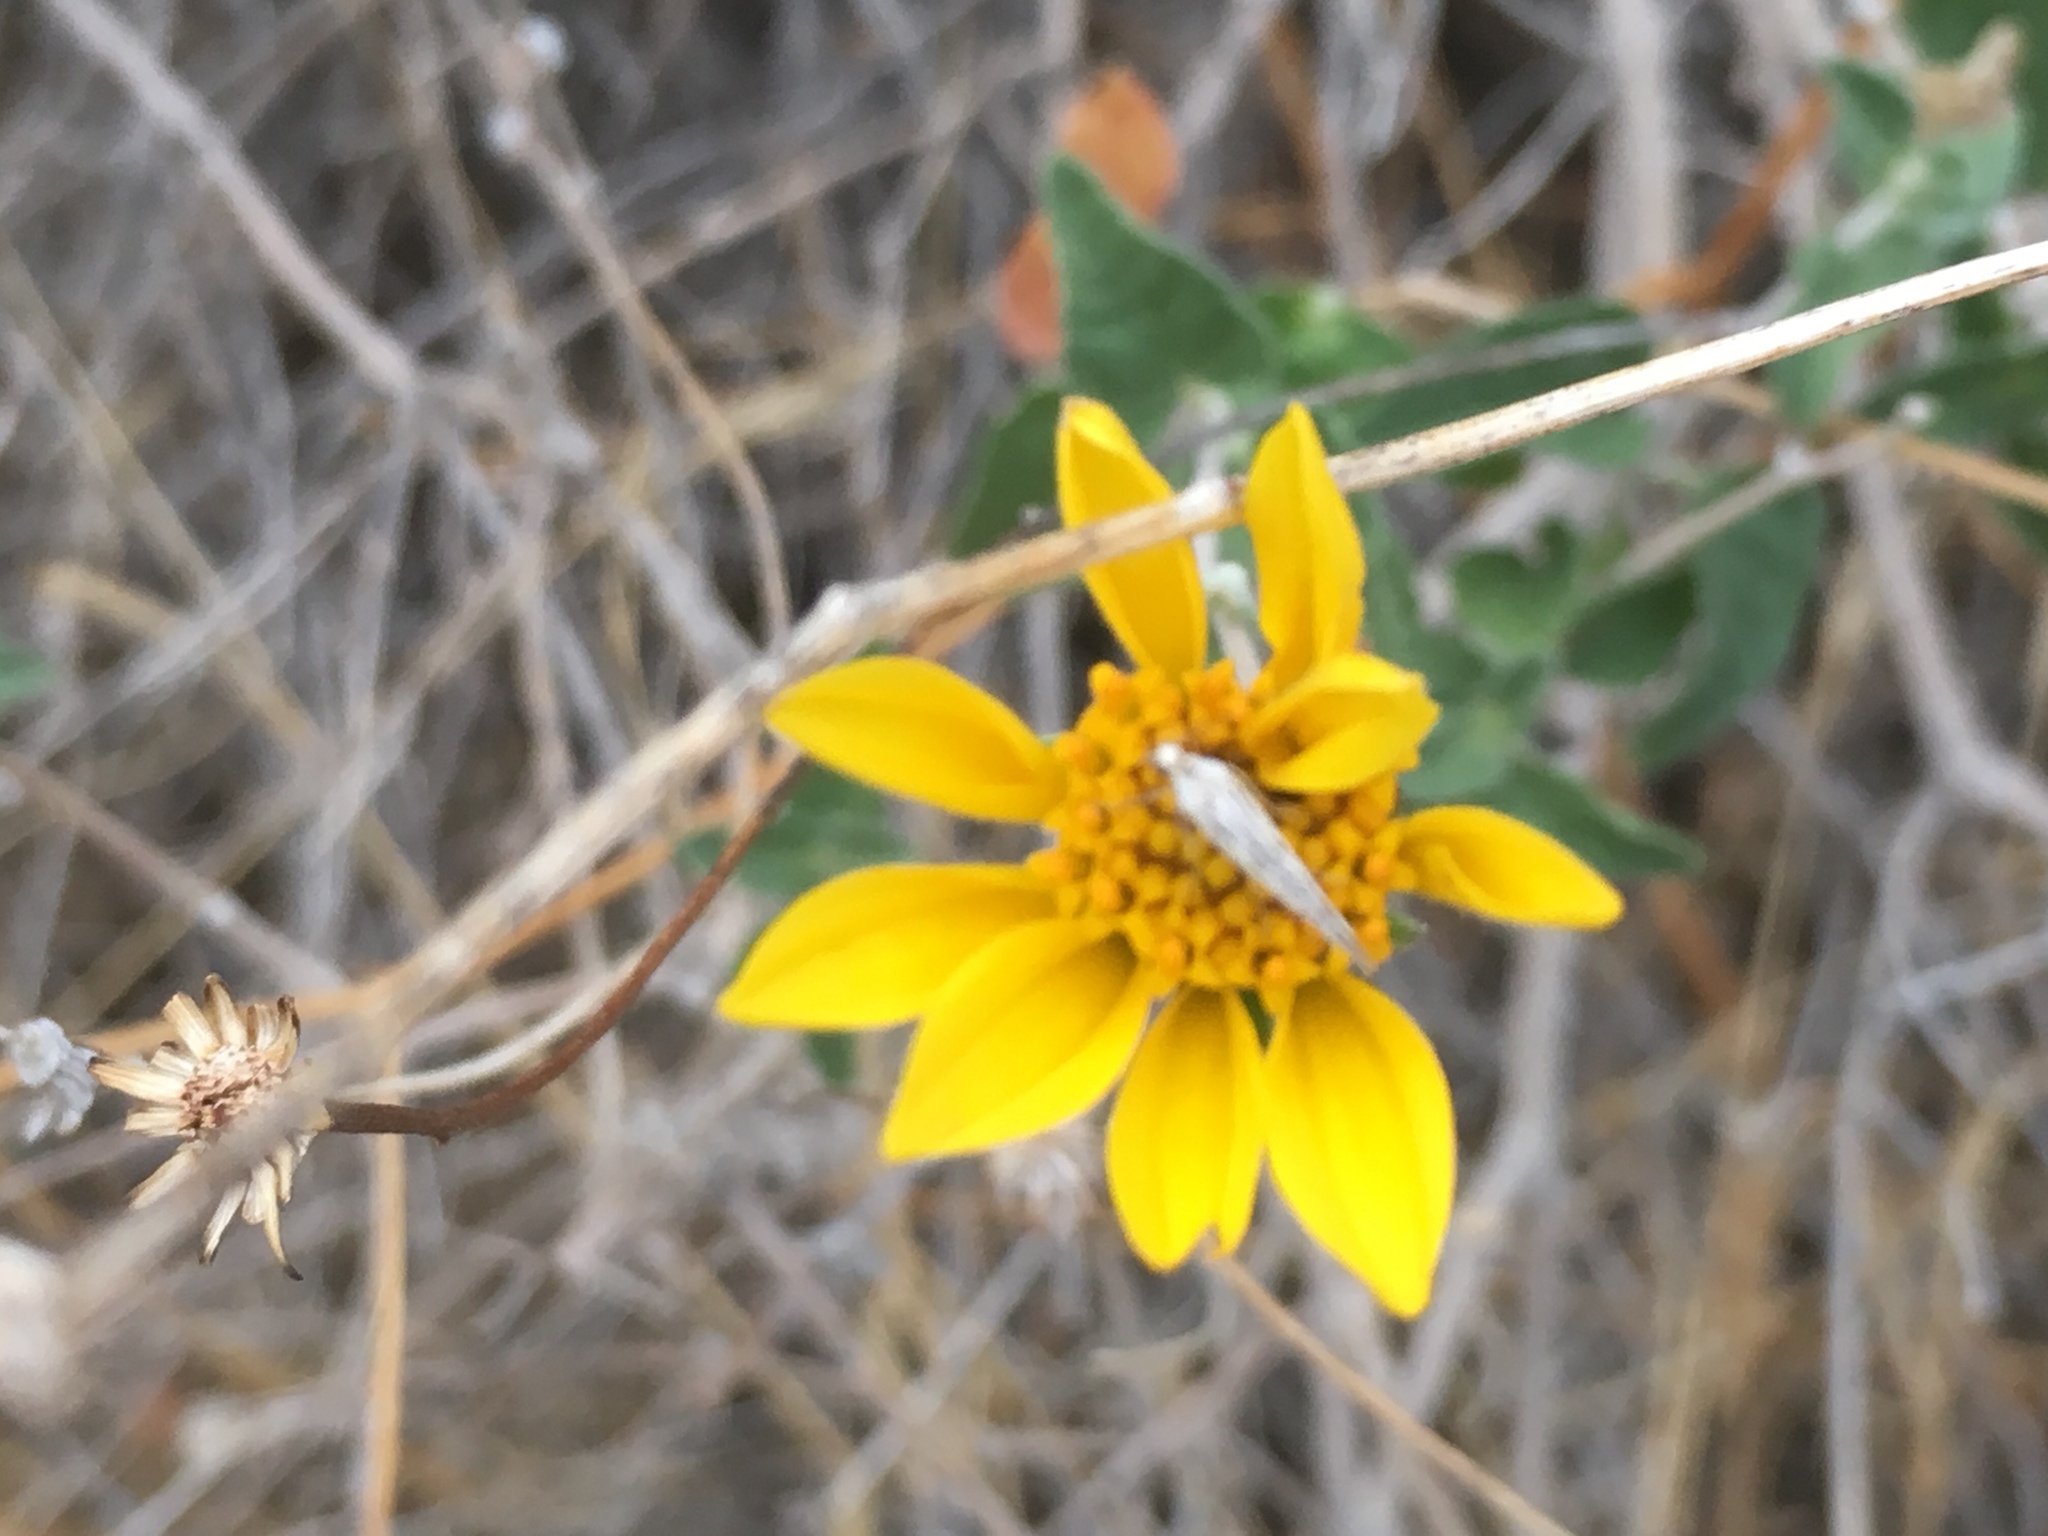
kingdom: Plantae
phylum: Tracheophyta
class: Magnoliopsida
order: Asterales
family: Asteraceae
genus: Bahiopsis
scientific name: Bahiopsis parishii
